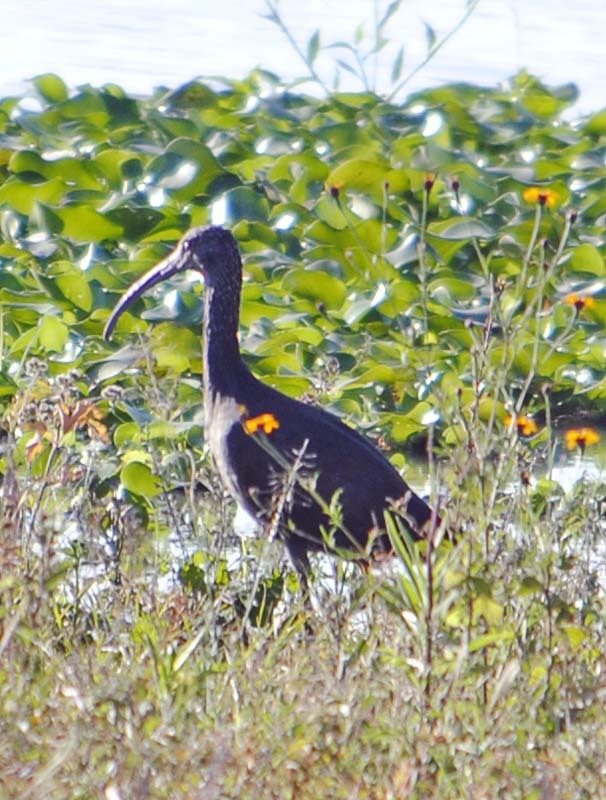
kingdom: Animalia
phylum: Chordata
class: Aves
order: Pelecaniformes
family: Threskiornithidae
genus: Plegadis
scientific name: Plegadis chihi
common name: White-faced ibis
